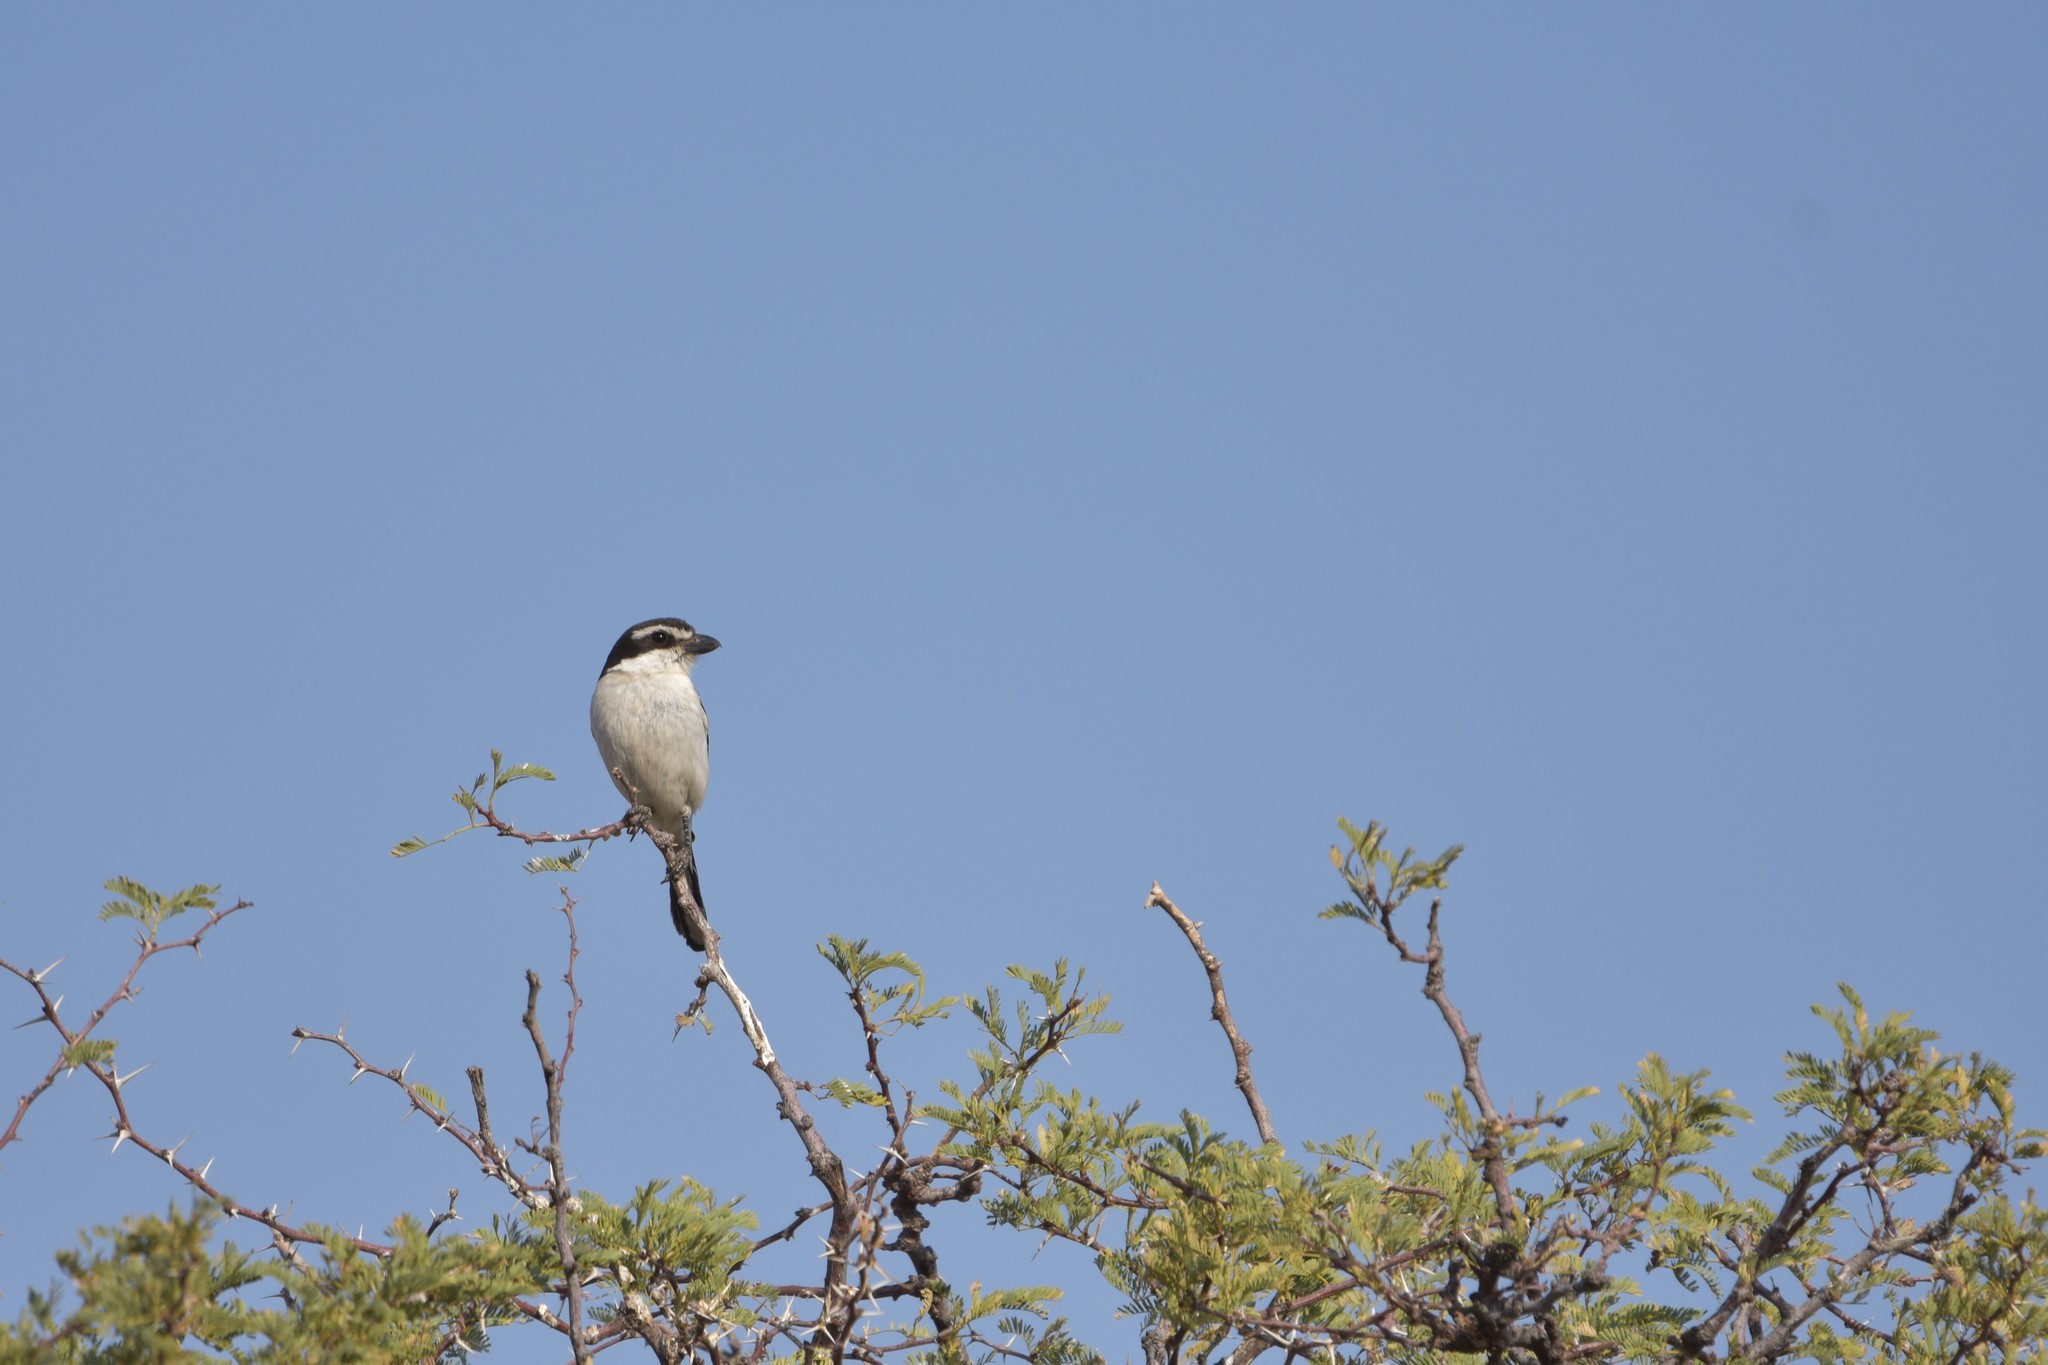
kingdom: Animalia
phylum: Chordata
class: Aves
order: Passeriformes
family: Laniidae
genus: Lanius
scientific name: Lanius collaris
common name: Southern fiscal
